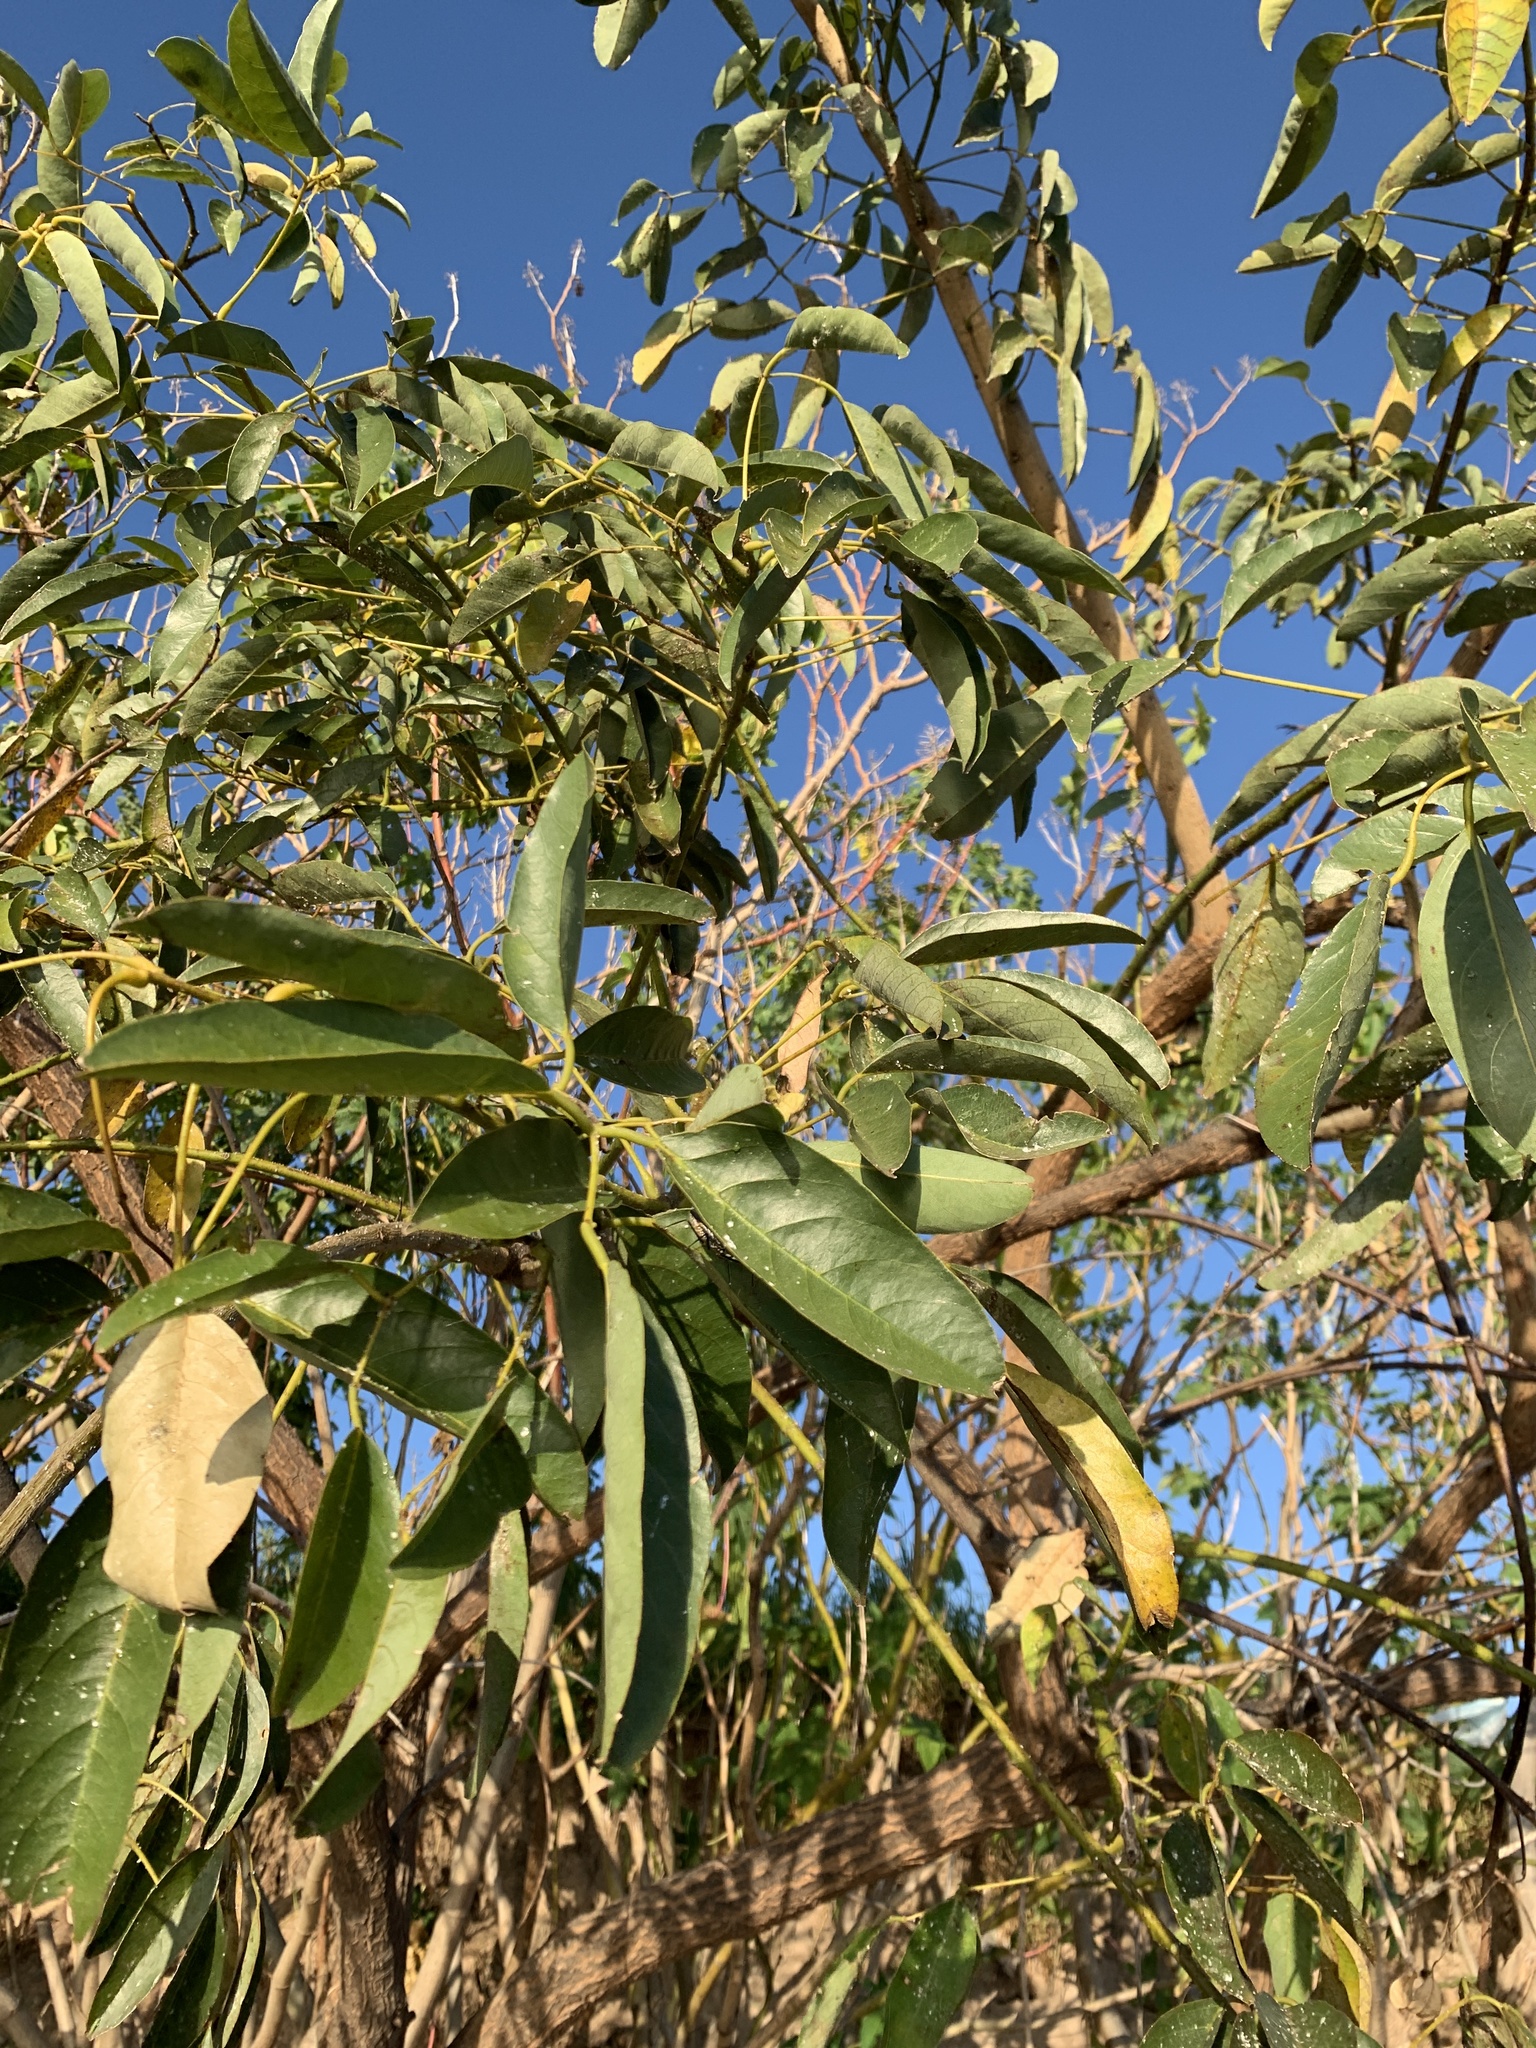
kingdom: Plantae
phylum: Tracheophyta
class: Magnoliopsida
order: Fabales
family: Fabaceae
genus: Erythrina
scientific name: Erythrina crista-galli
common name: Cockspur coral tree
